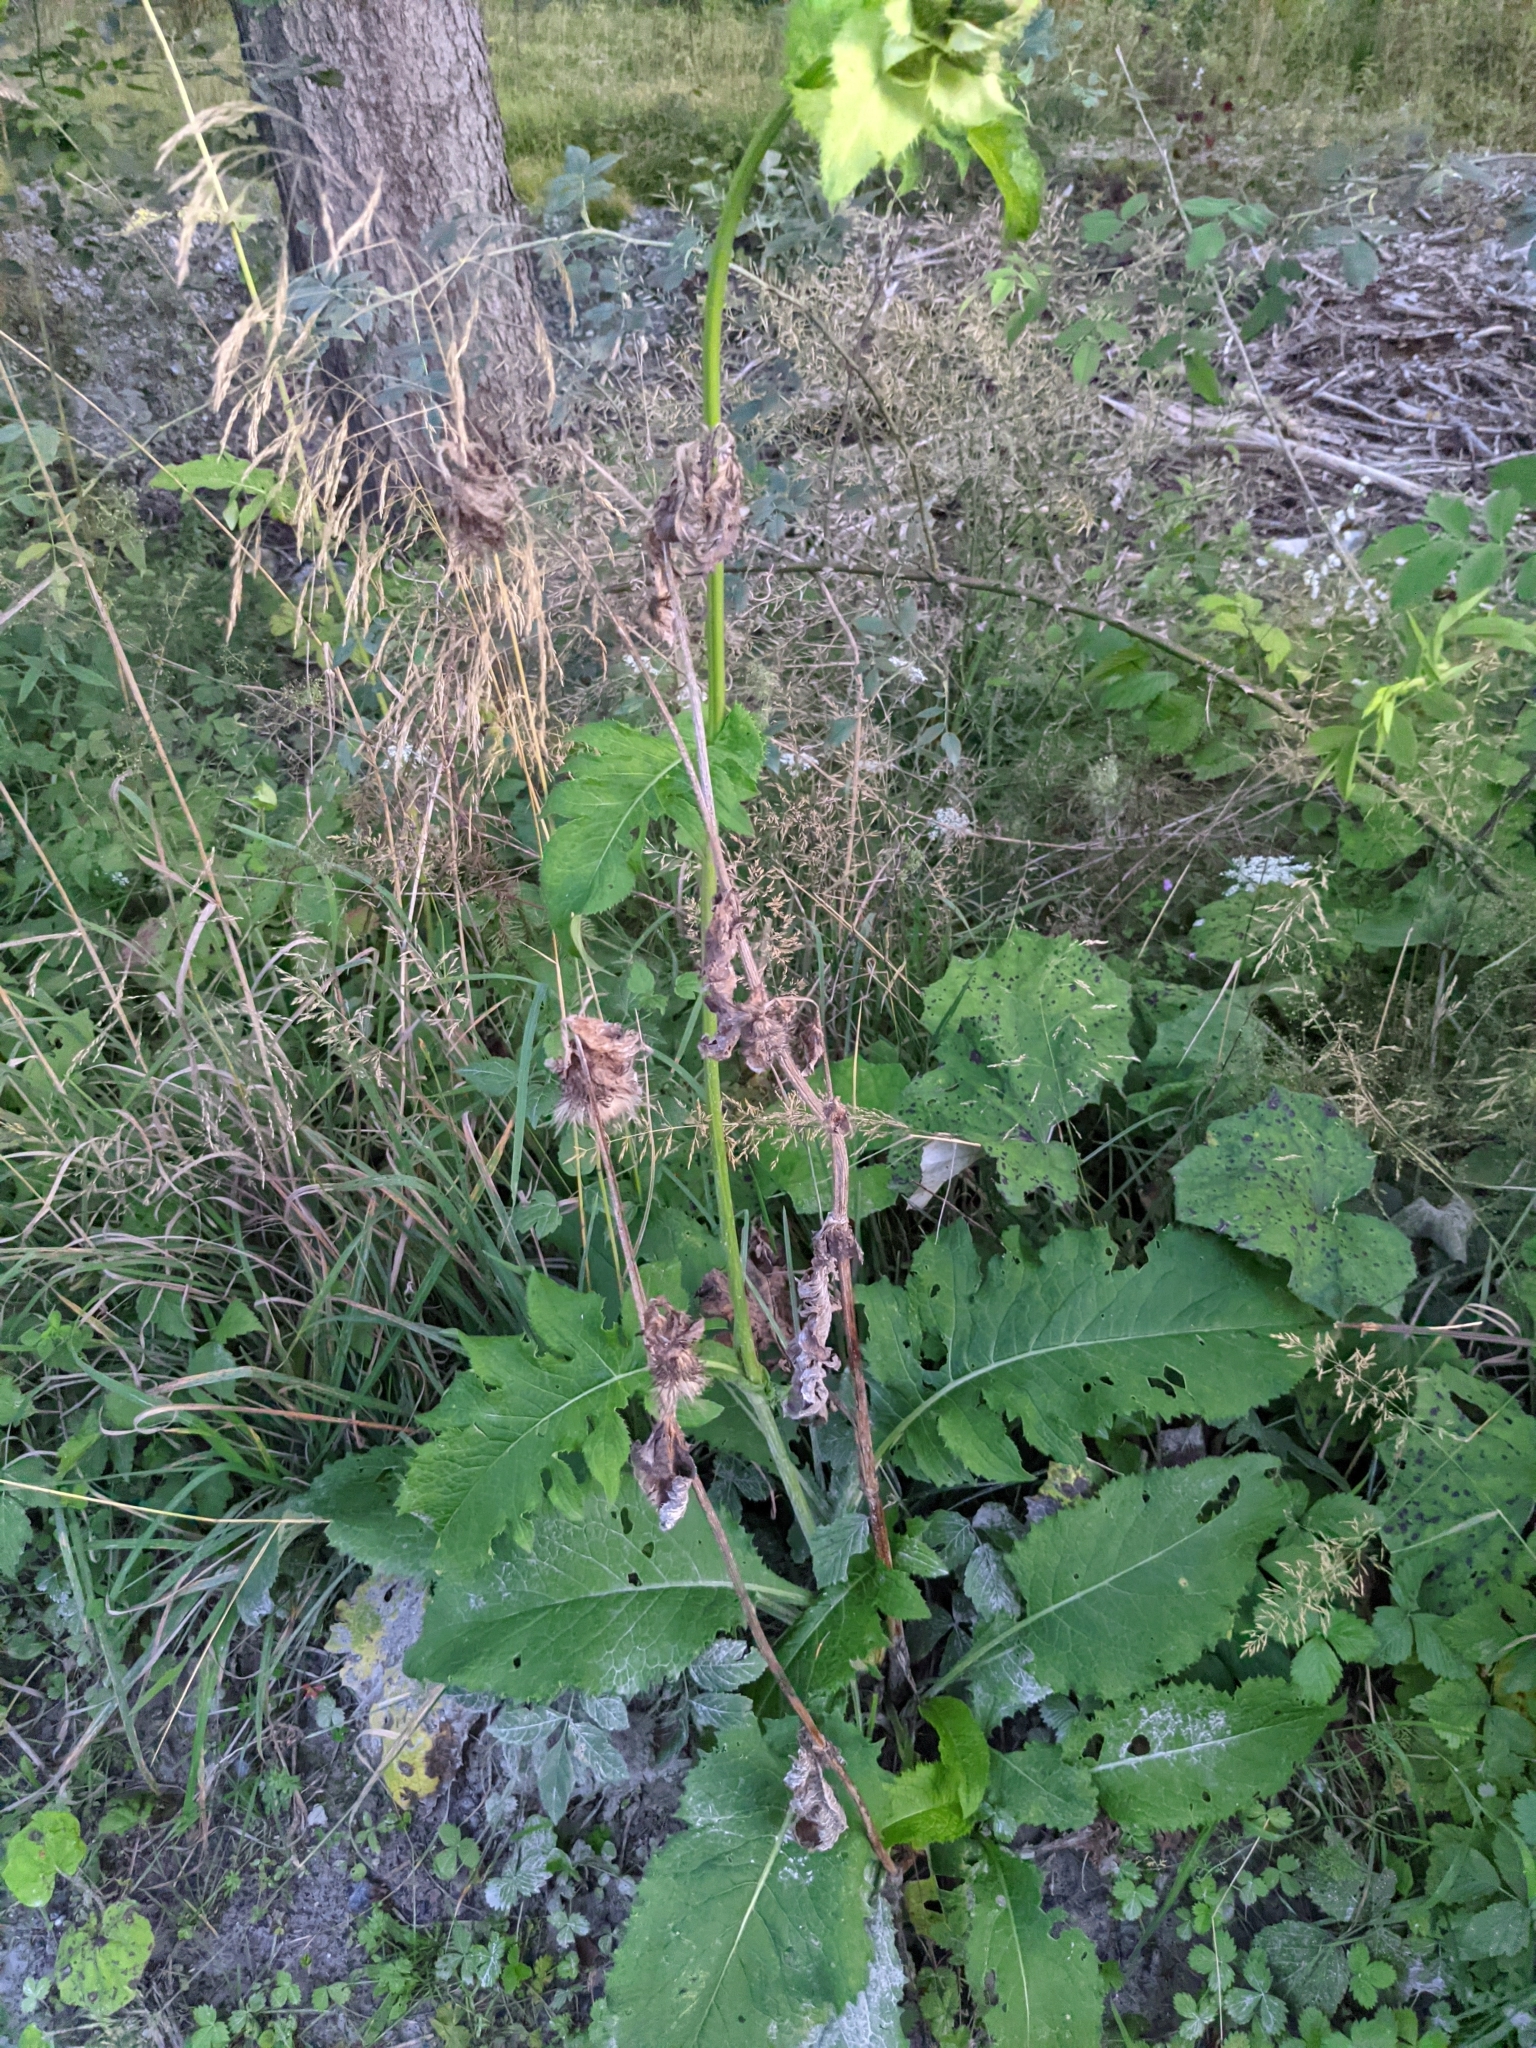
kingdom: Plantae
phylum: Tracheophyta
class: Magnoliopsida
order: Asterales
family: Asteraceae
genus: Cirsium
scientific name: Cirsium oleraceum
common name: Cabbage thistle
